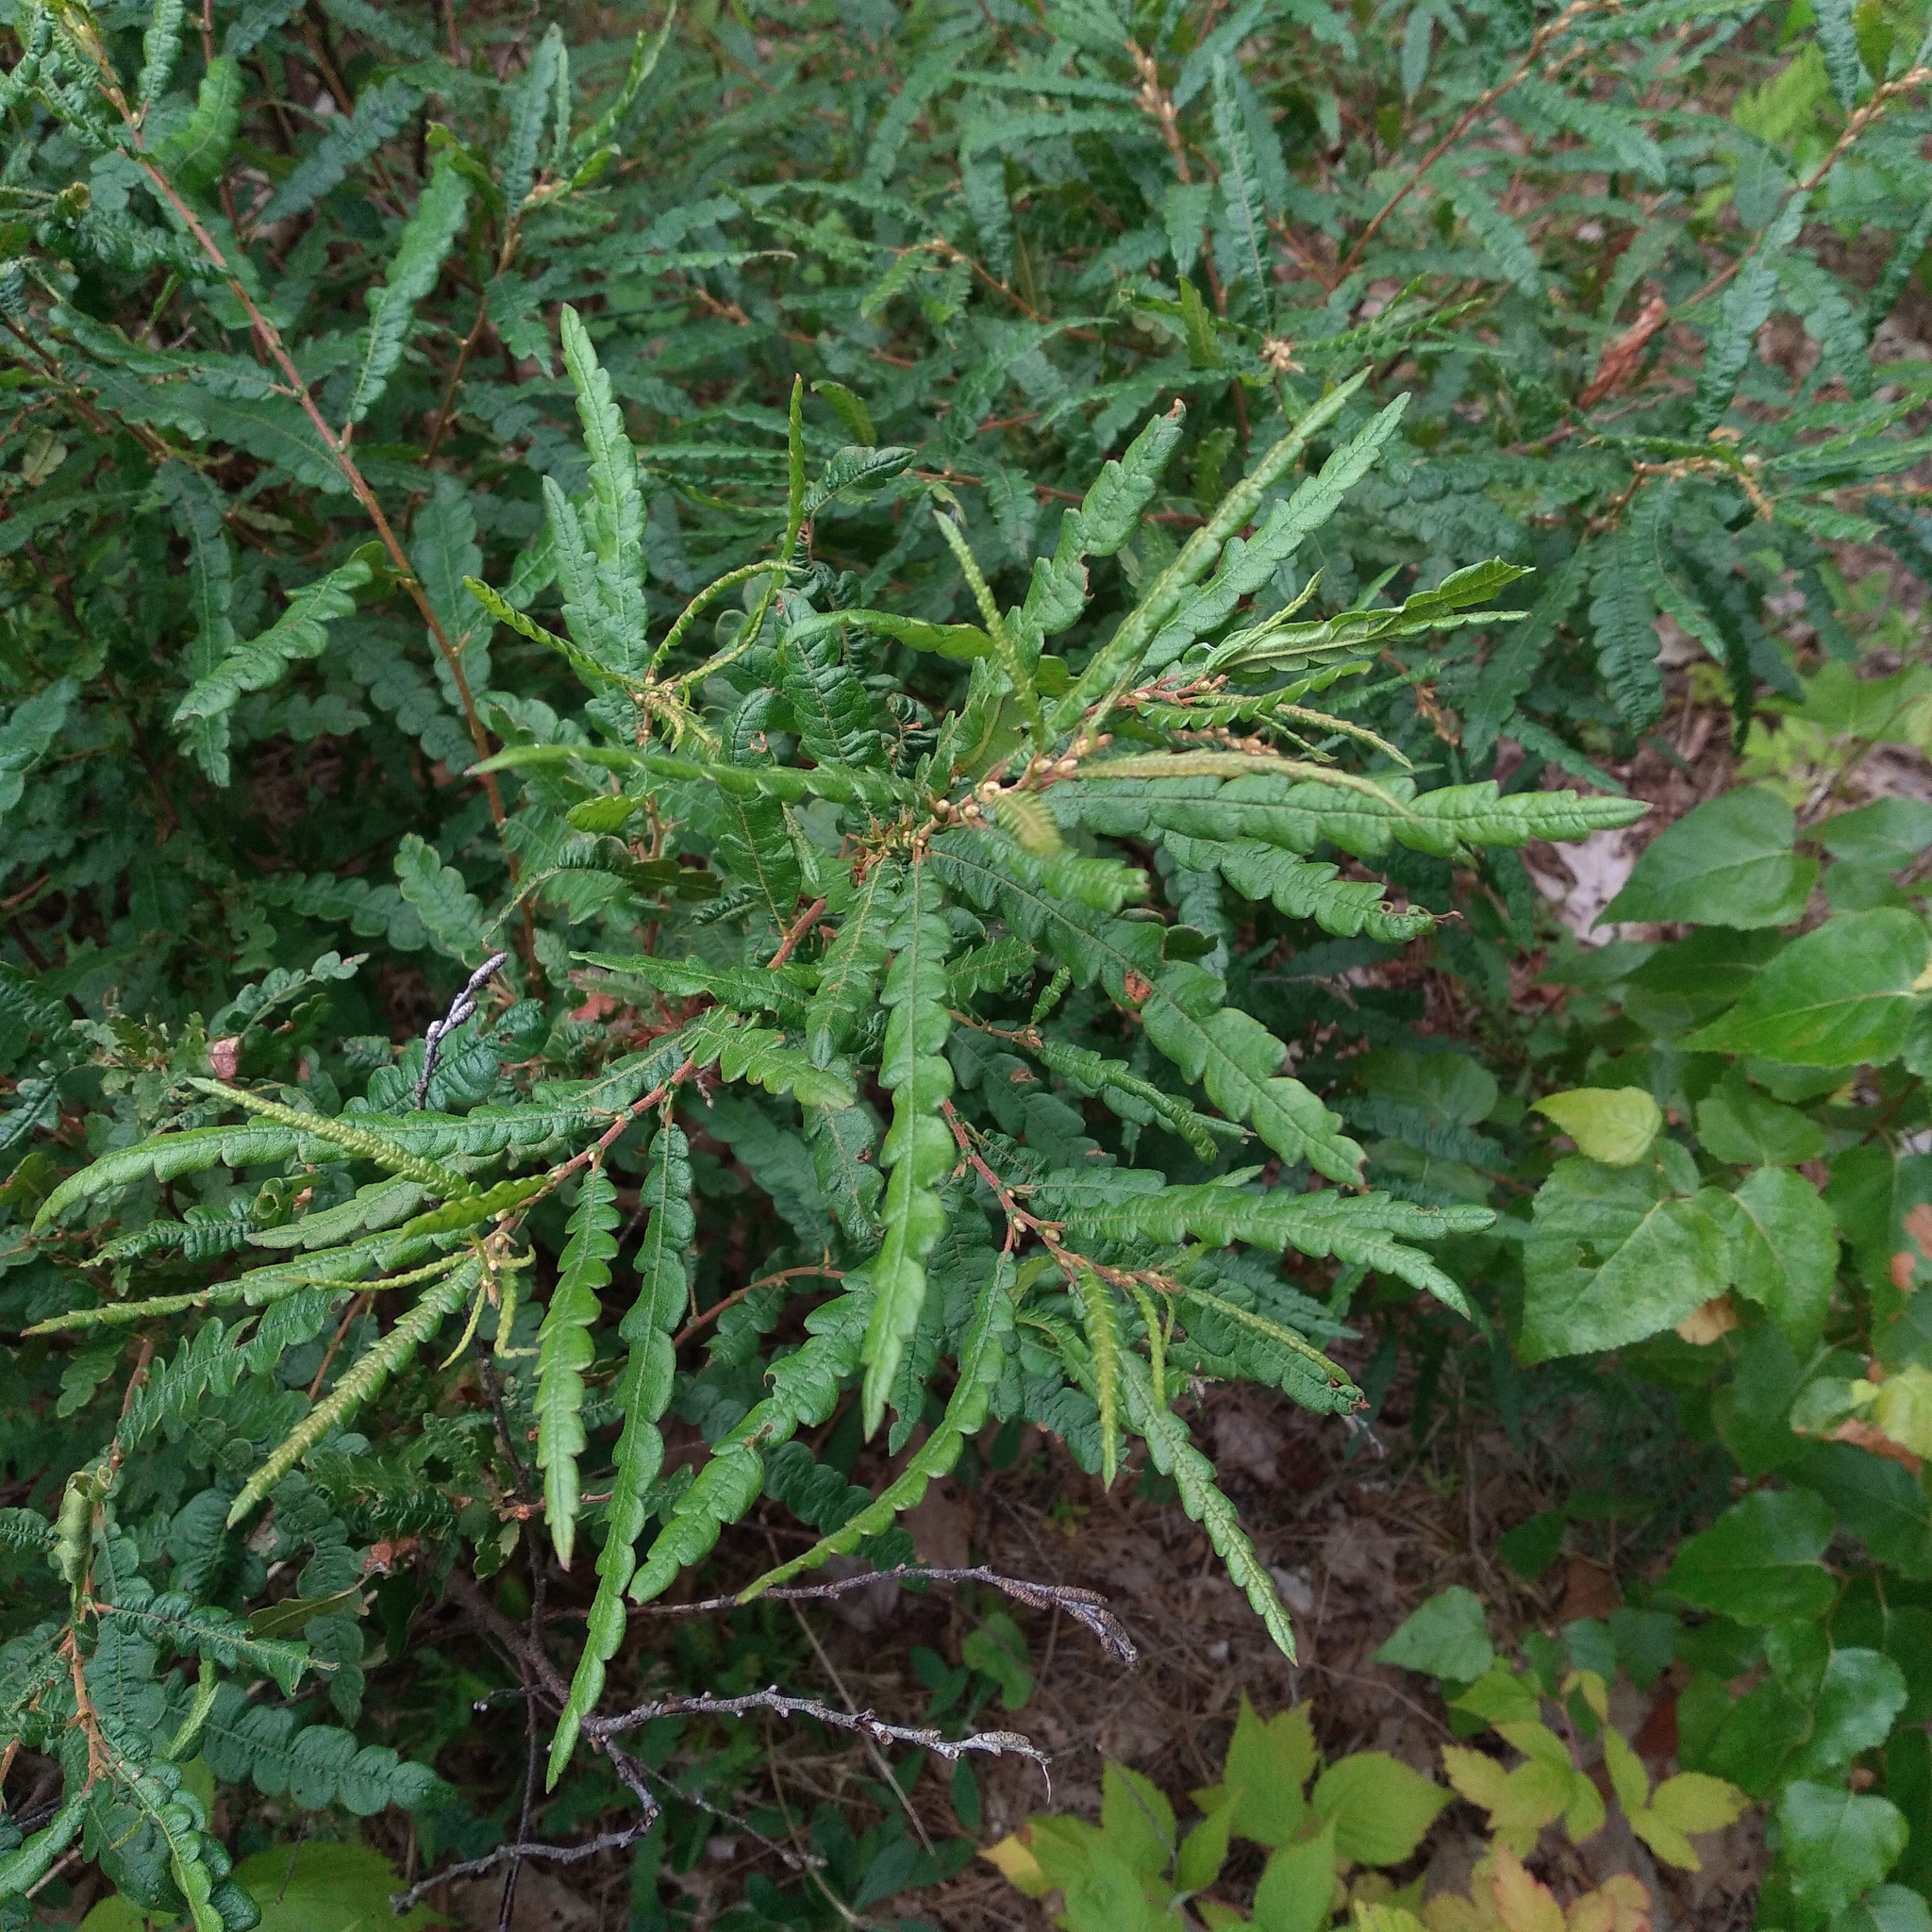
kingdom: Plantae
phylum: Tracheophyta
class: Magnoliopsida
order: Fagales
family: Myricaceae
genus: Comptonia
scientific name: Comptonia peregrina
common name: Sweet-fern
